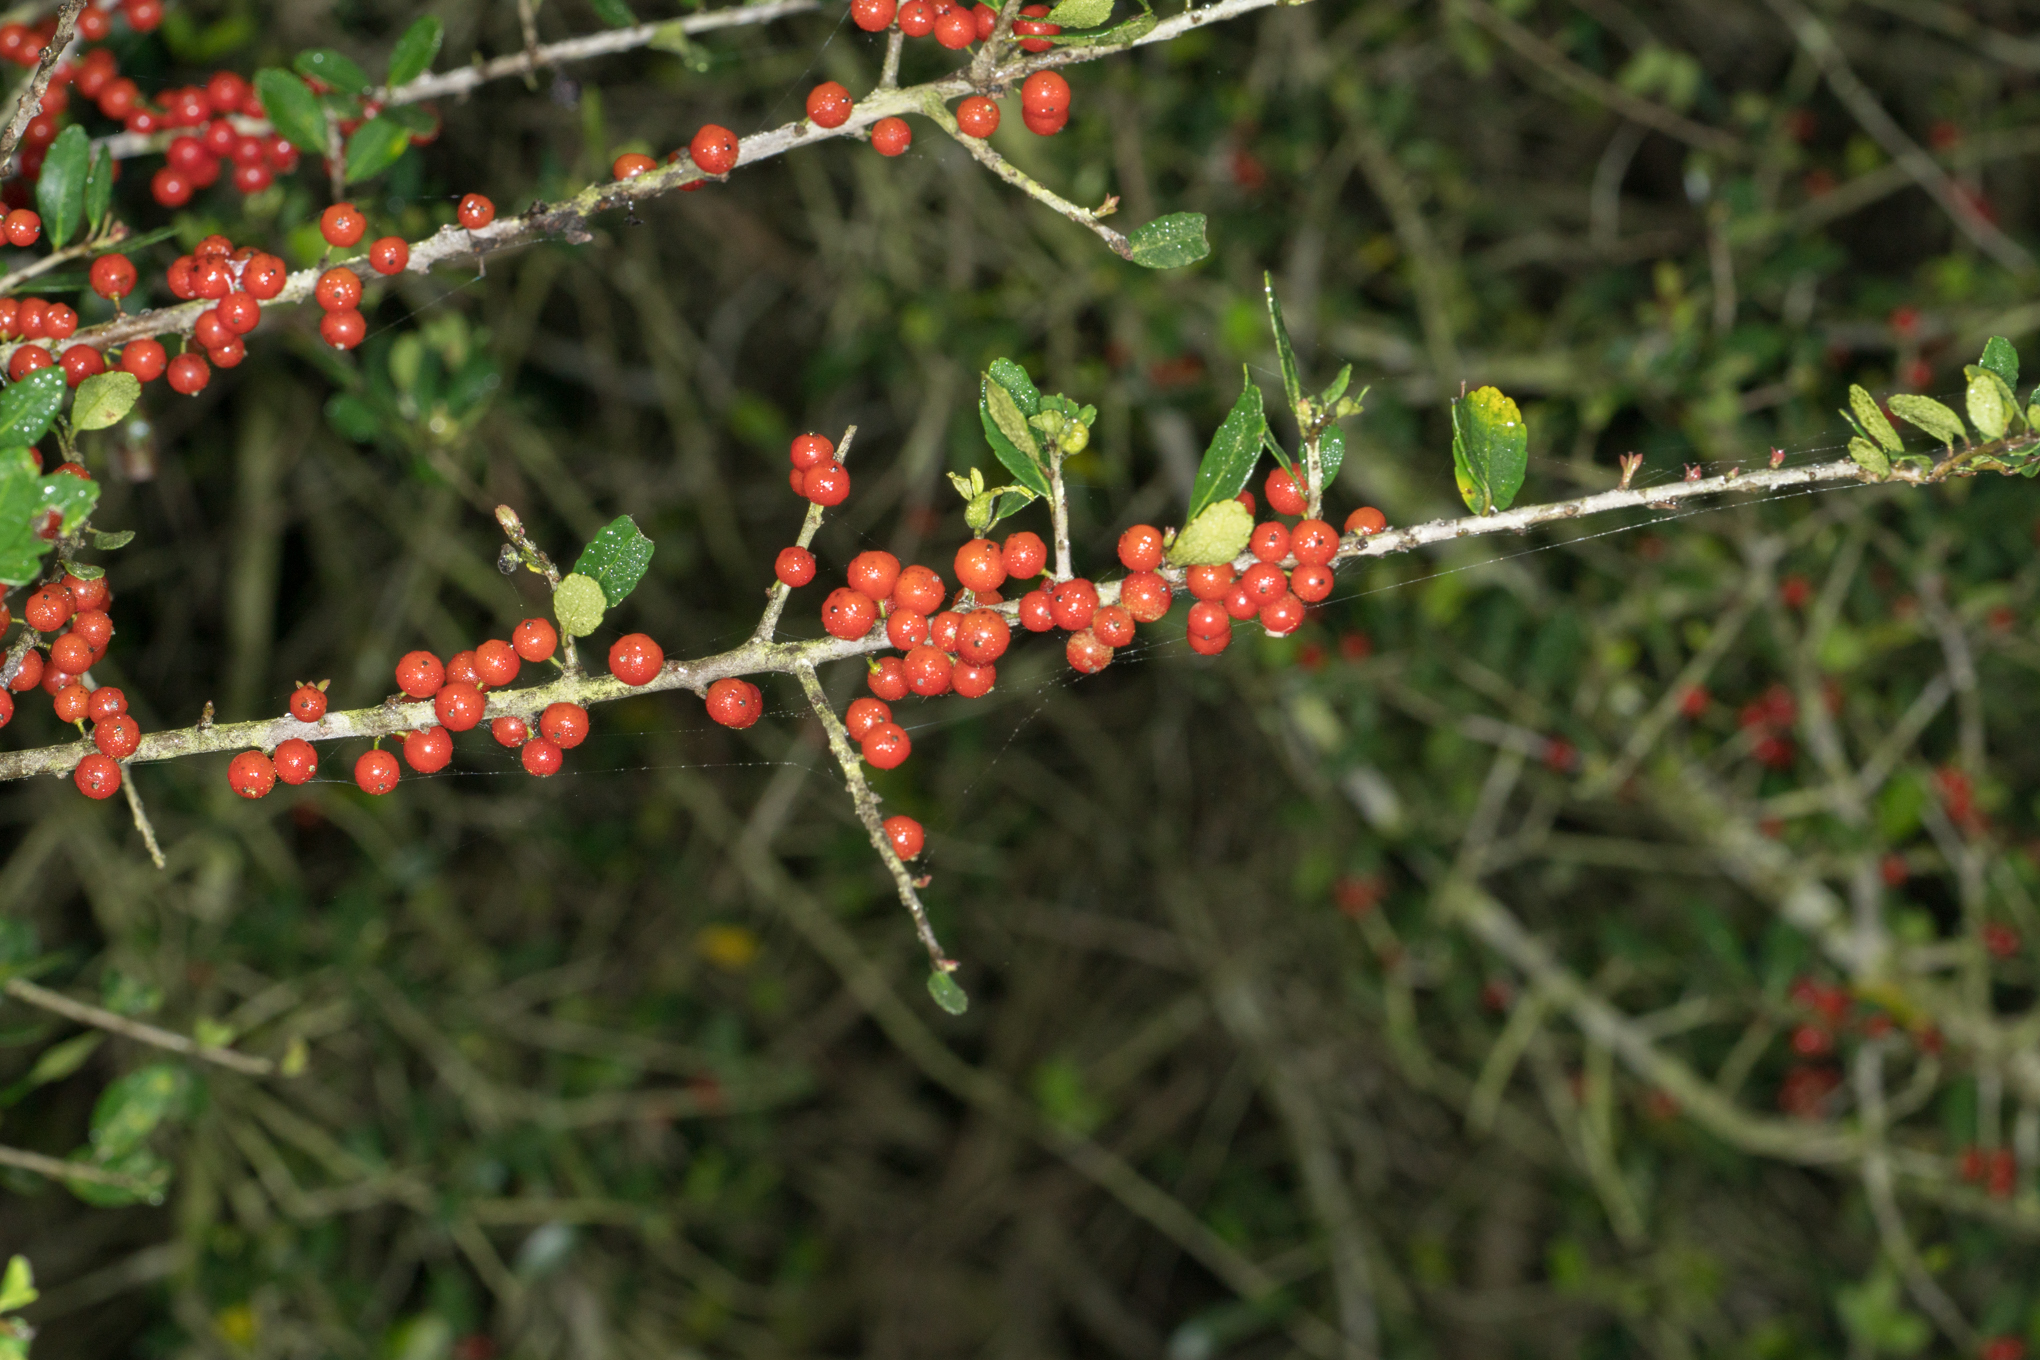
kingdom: Plantae
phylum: Tracheophyta
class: Magnoliopsida
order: Aquifoliales
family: Aquifoliaceae
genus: Ilex
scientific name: Ilex vomitoria
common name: Yaupon holly
